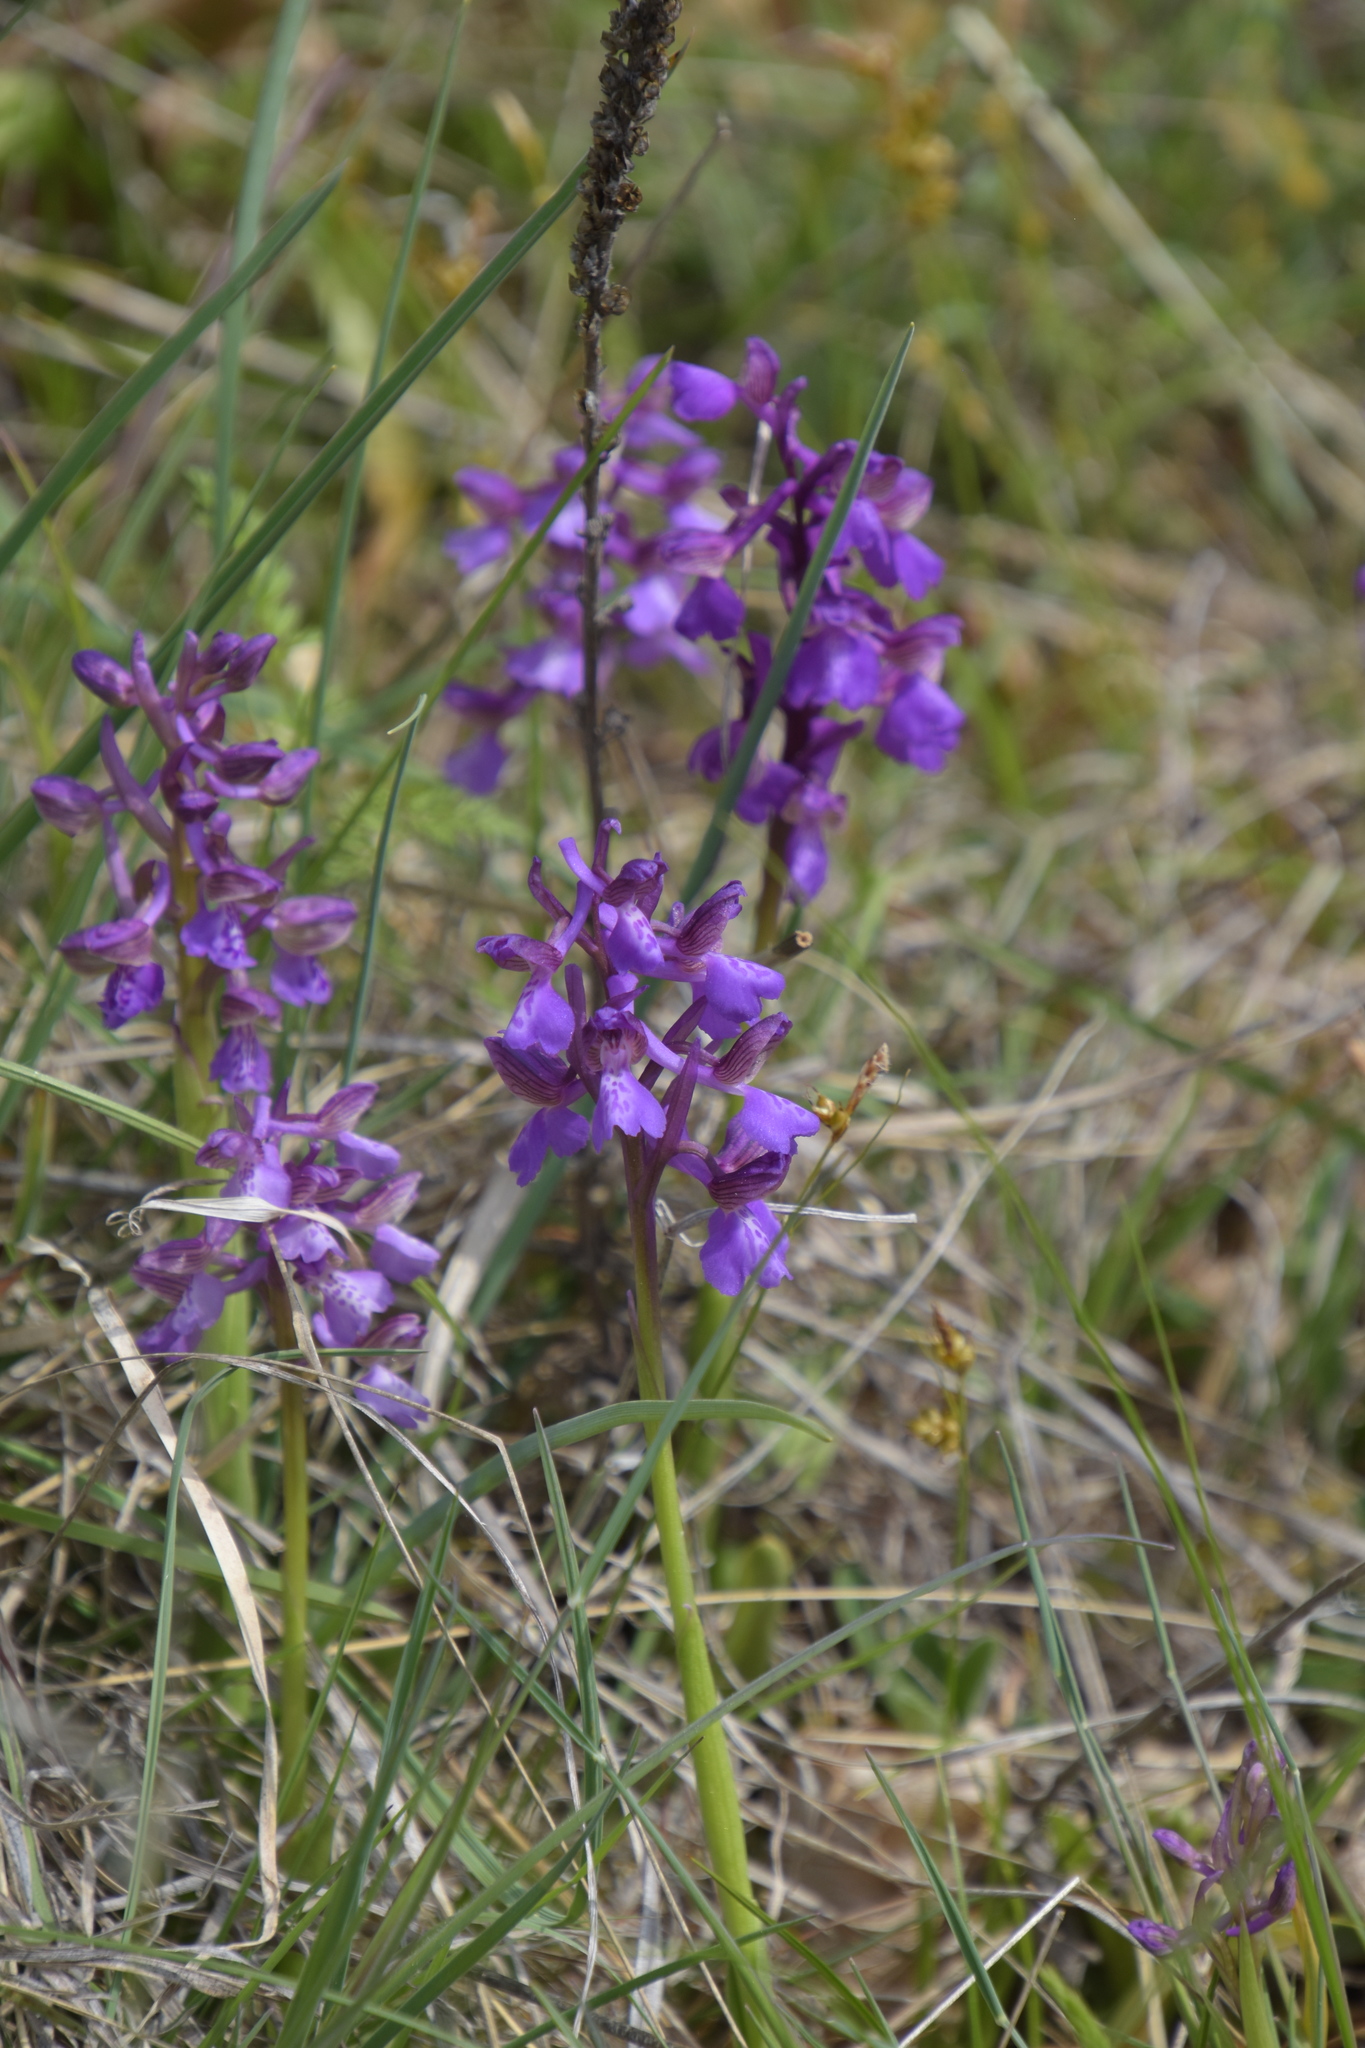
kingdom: Plantae
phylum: Tracheophyta
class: Liliopsida
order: Asparagales
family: Orchidaceae
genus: Anacamptis
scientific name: Anacamptis morio
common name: Green-winged orchid
